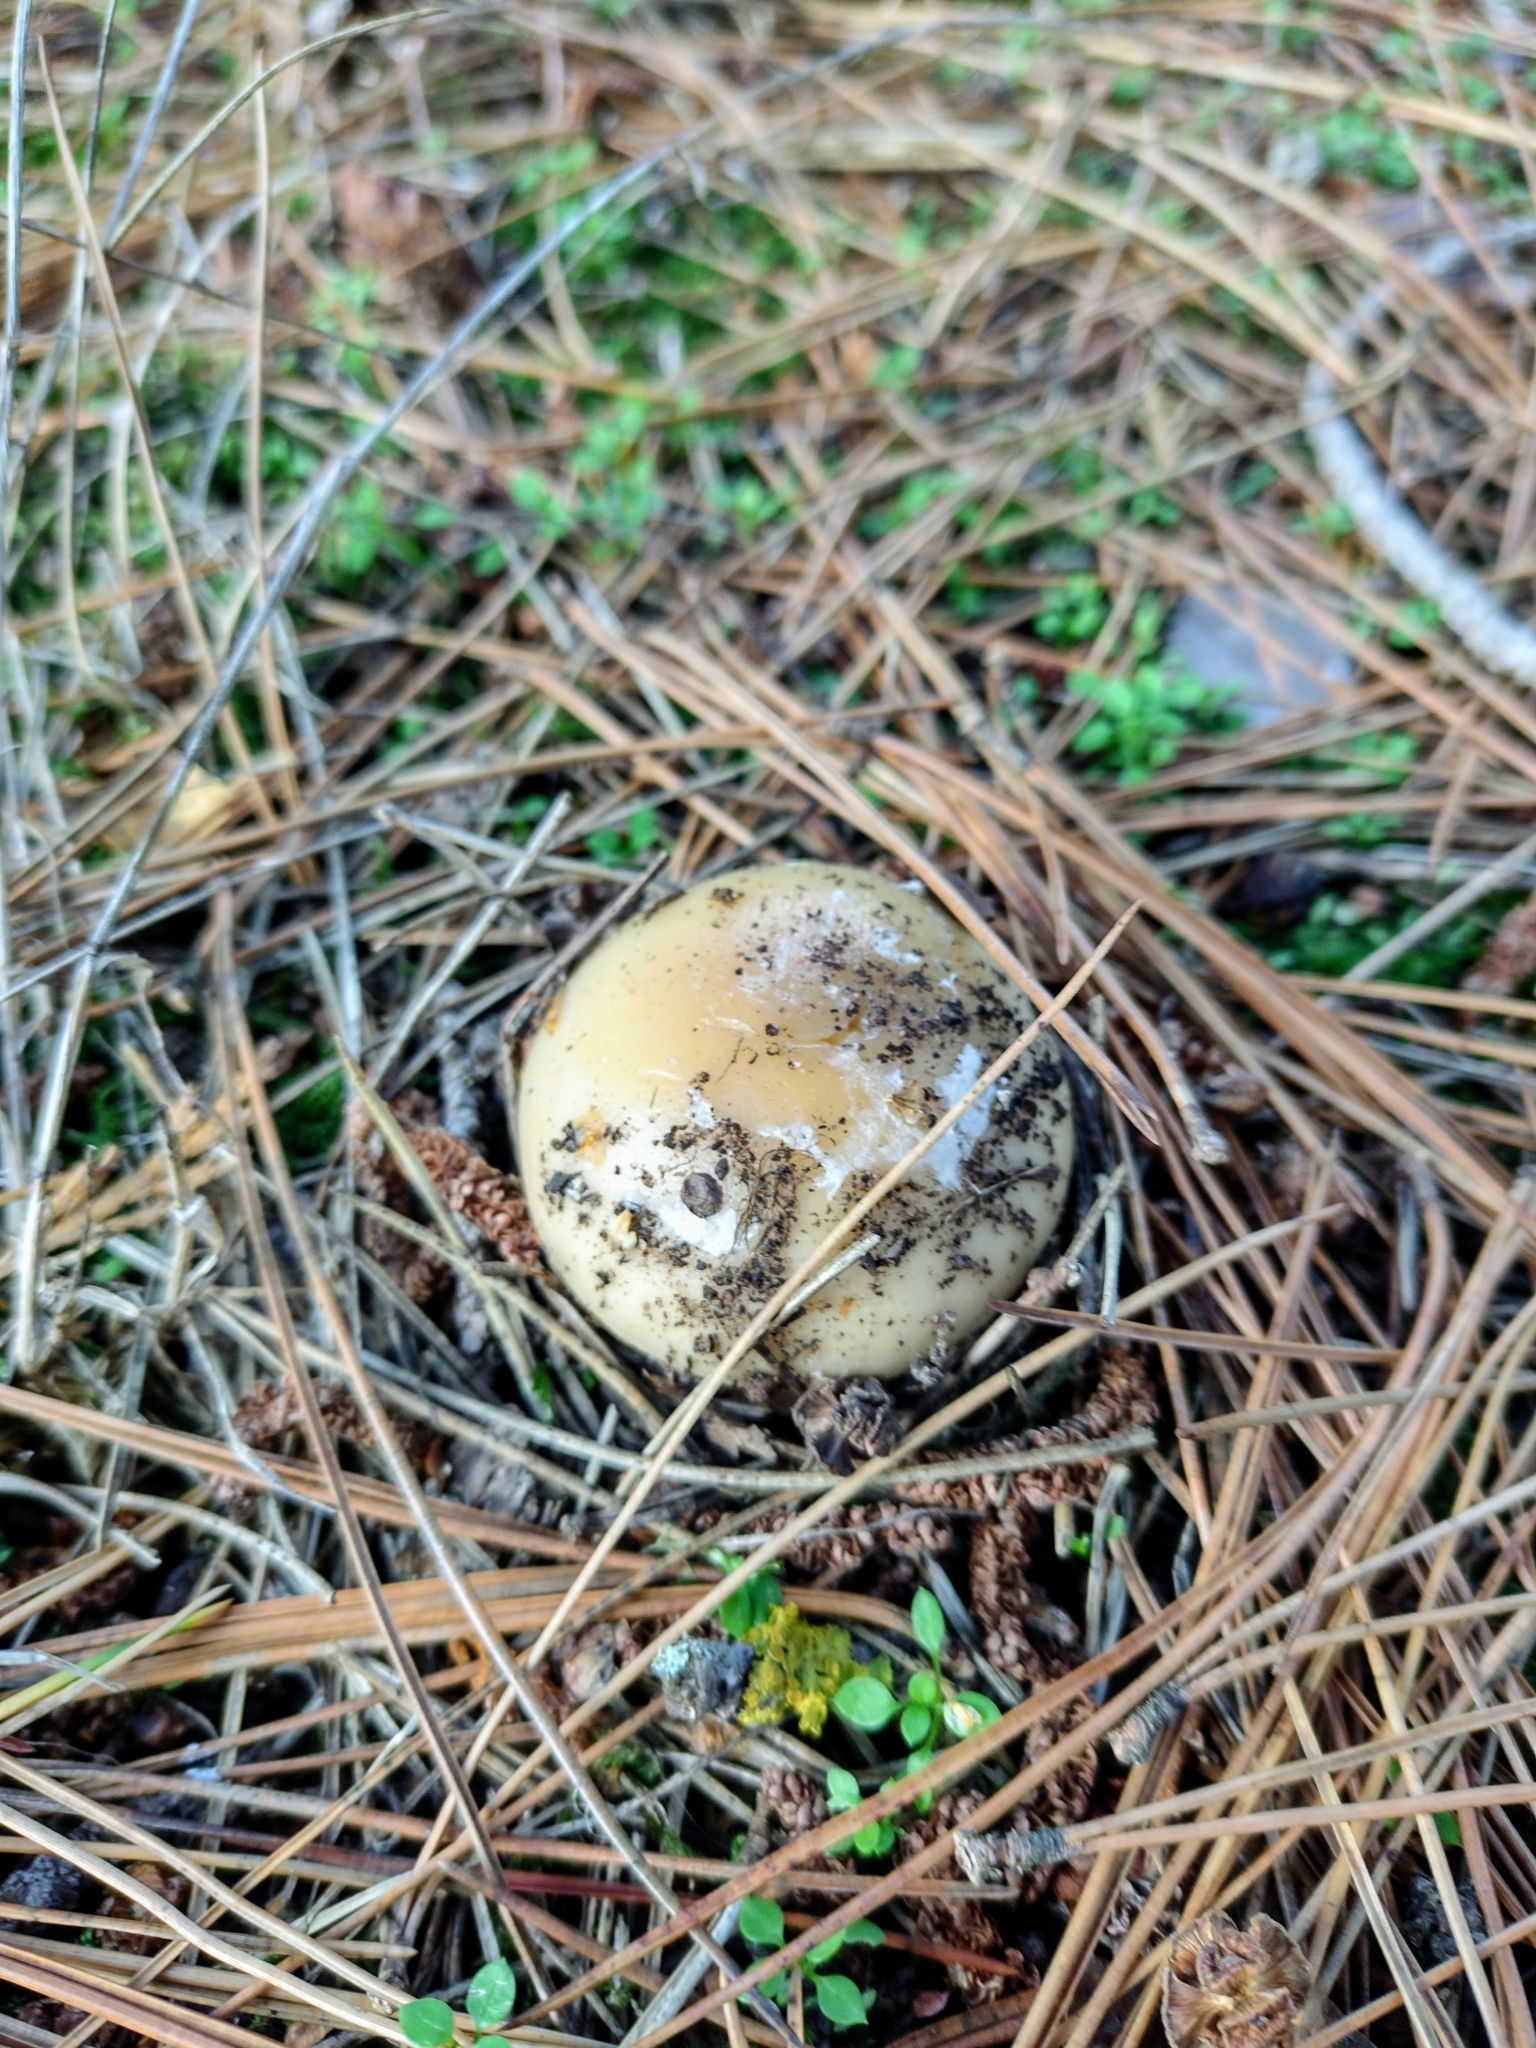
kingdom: Fungi
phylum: Basidiomycota
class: Agaricomycetes
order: Agaricales
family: Amanitaceae
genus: Amanita
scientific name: Amanita gemmata
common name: Jewelled amanita
